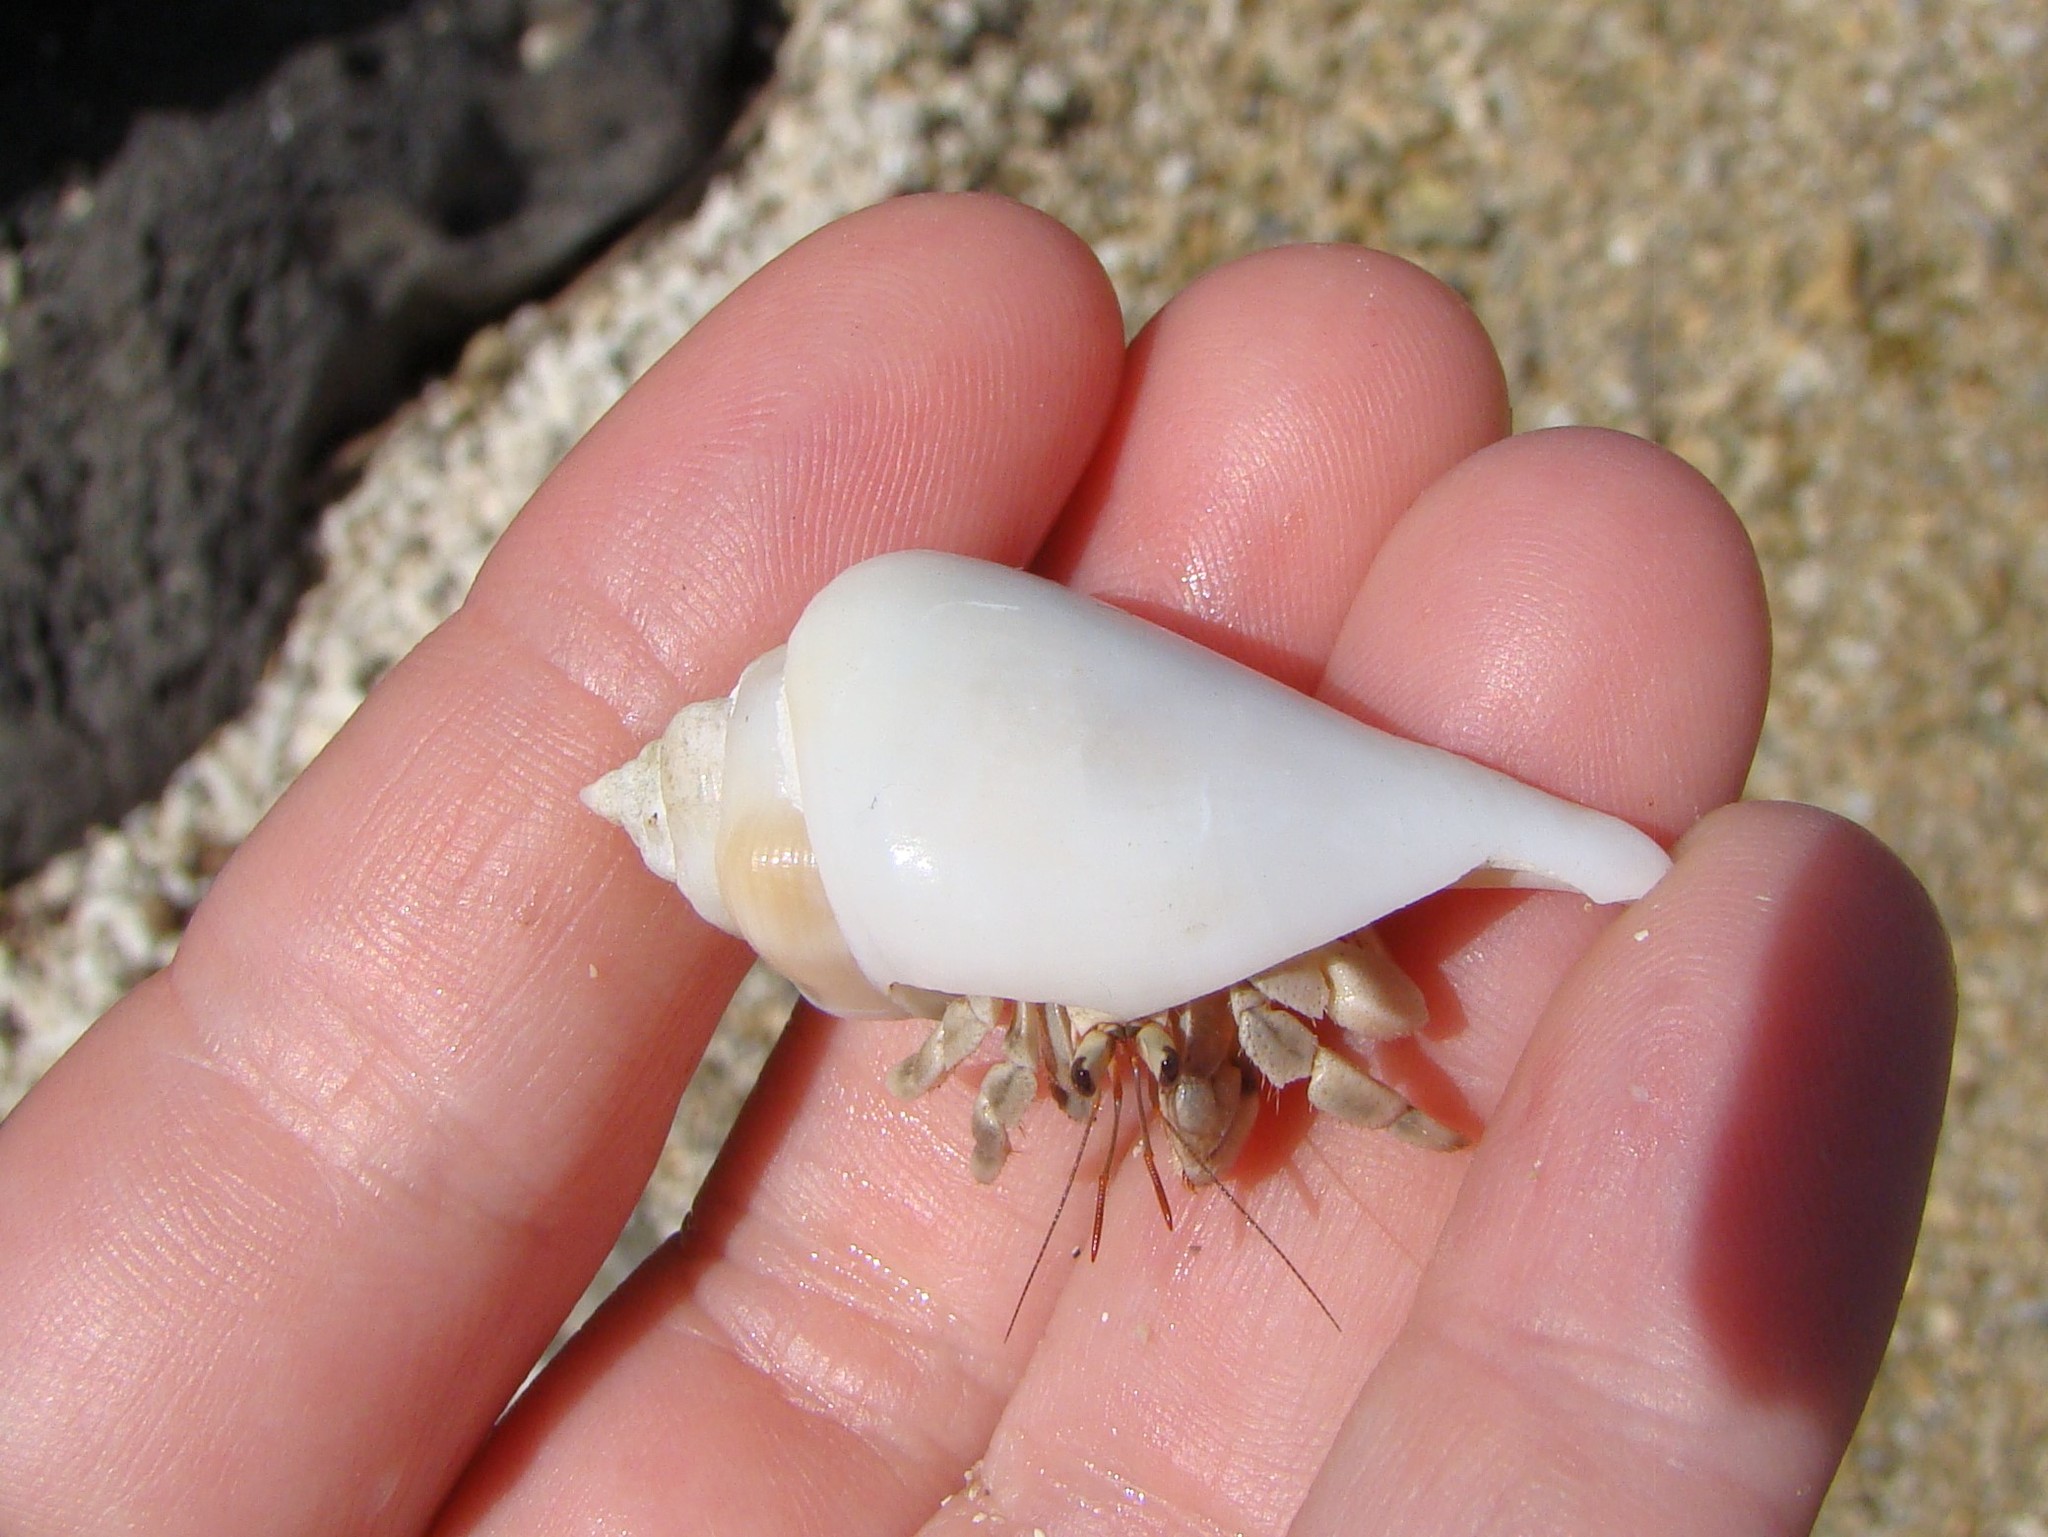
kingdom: Animalia
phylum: Mollusca
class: Gastropoda
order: Littorinimorpha
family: Strombidae
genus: Gibberulus
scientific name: Gibberulus gibberulus
